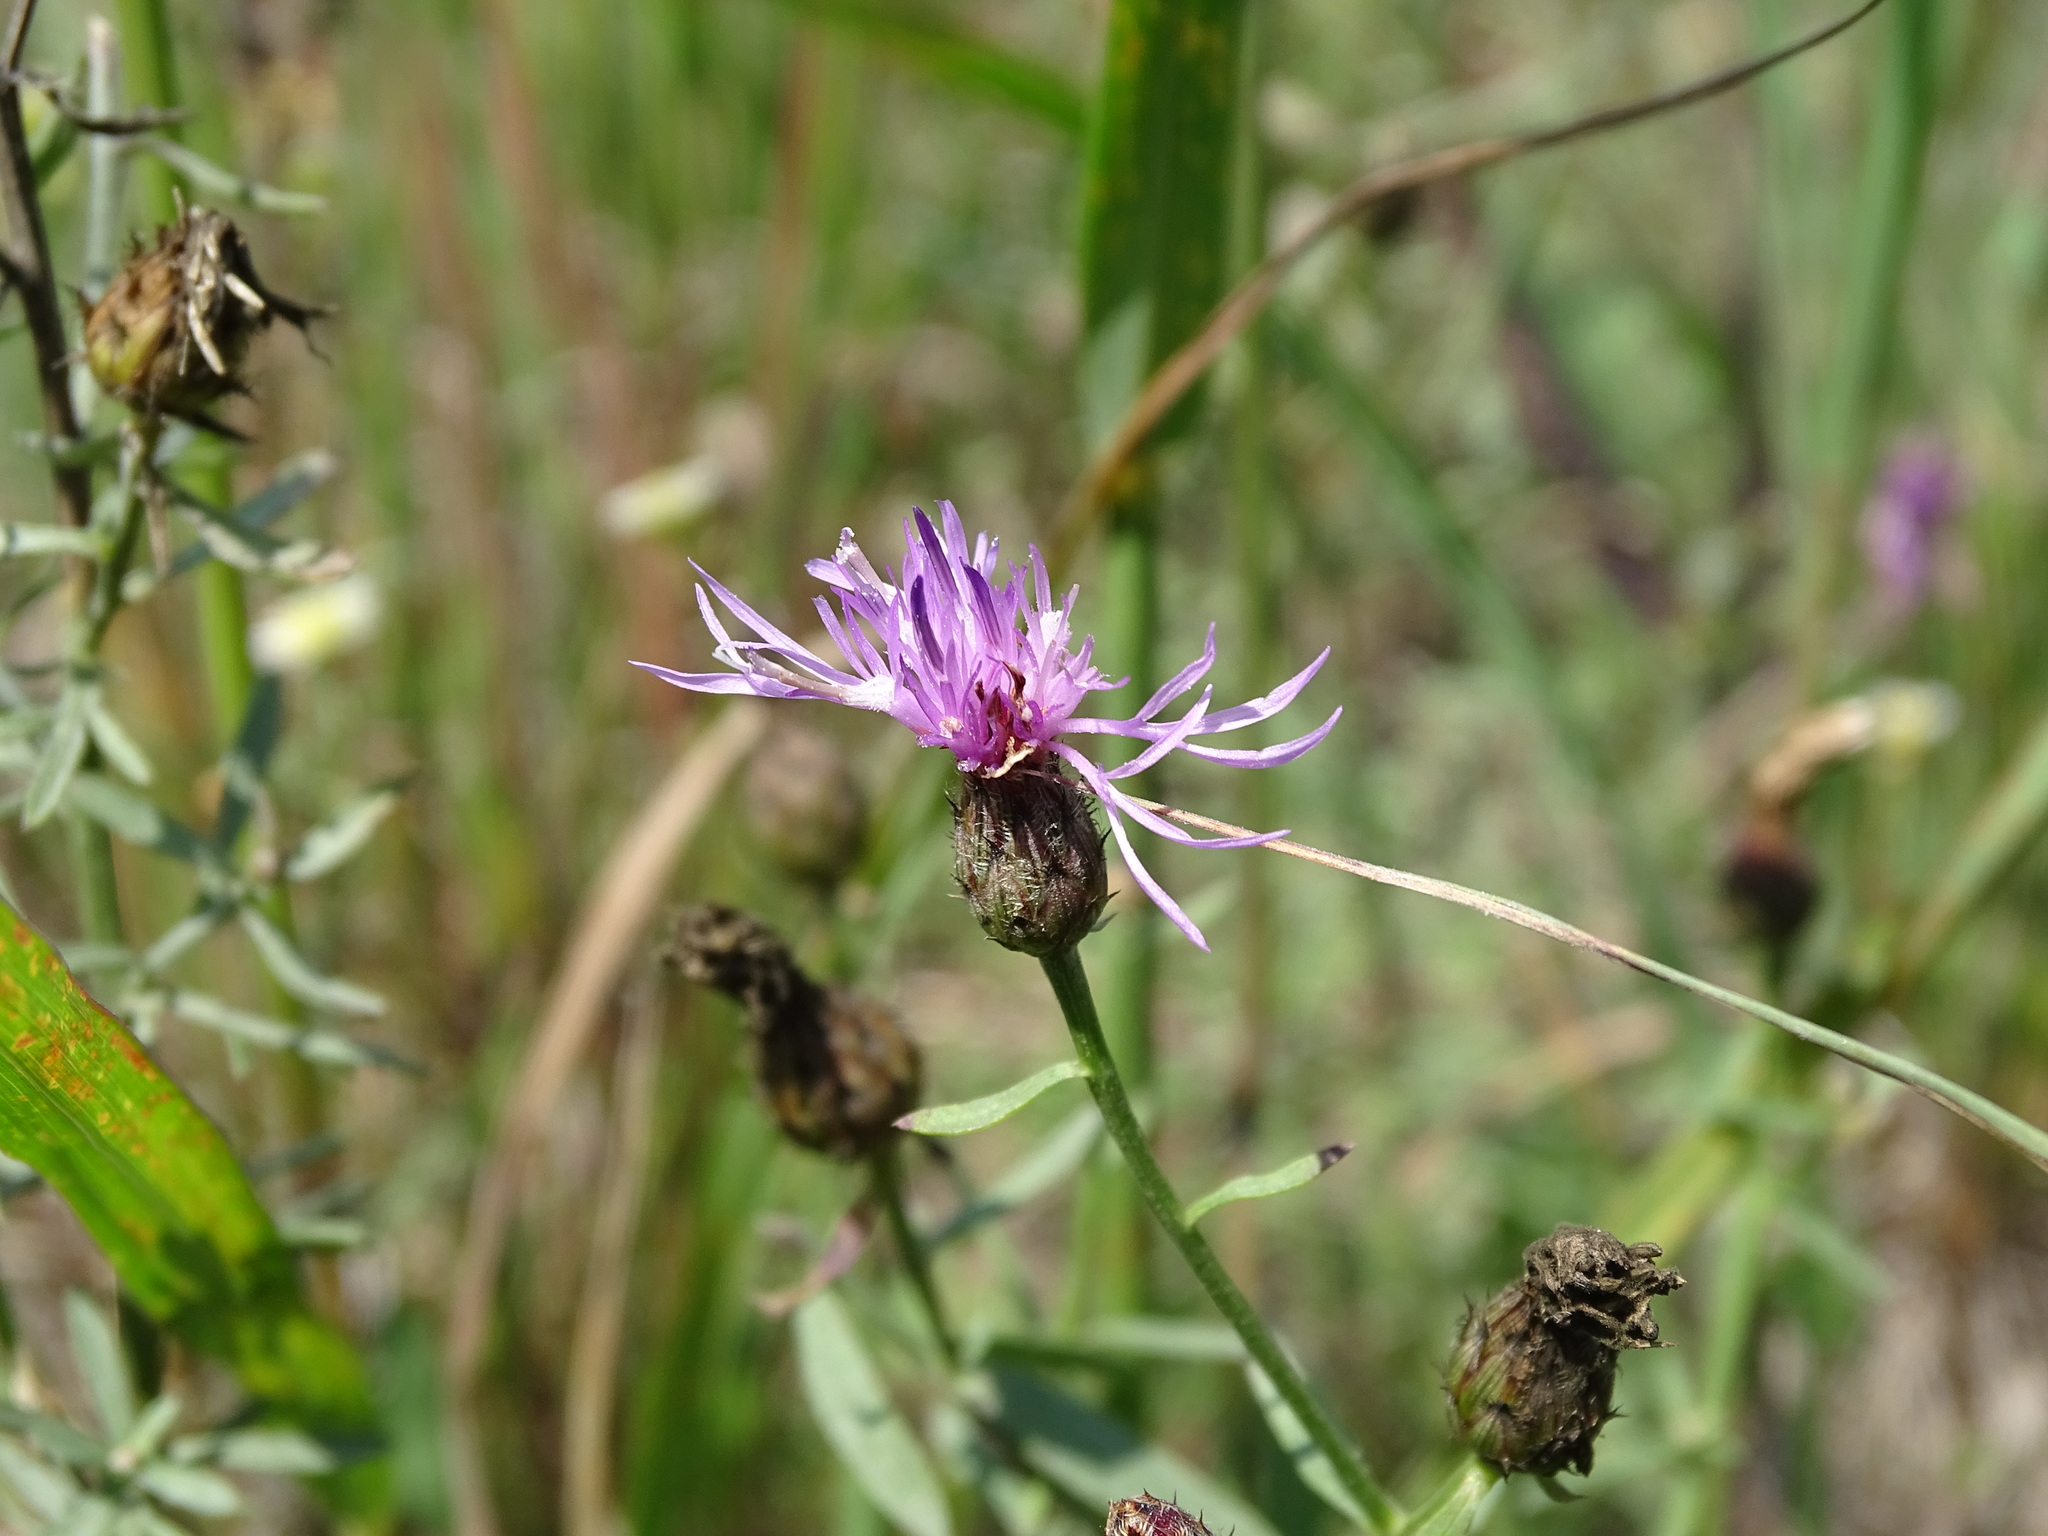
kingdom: Plantae
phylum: Tracheophyta
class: Magnoliopsida
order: Asterales
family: Asteraceae
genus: Centaurea
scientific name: Centaurea stoebe
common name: Spotted knapweed
